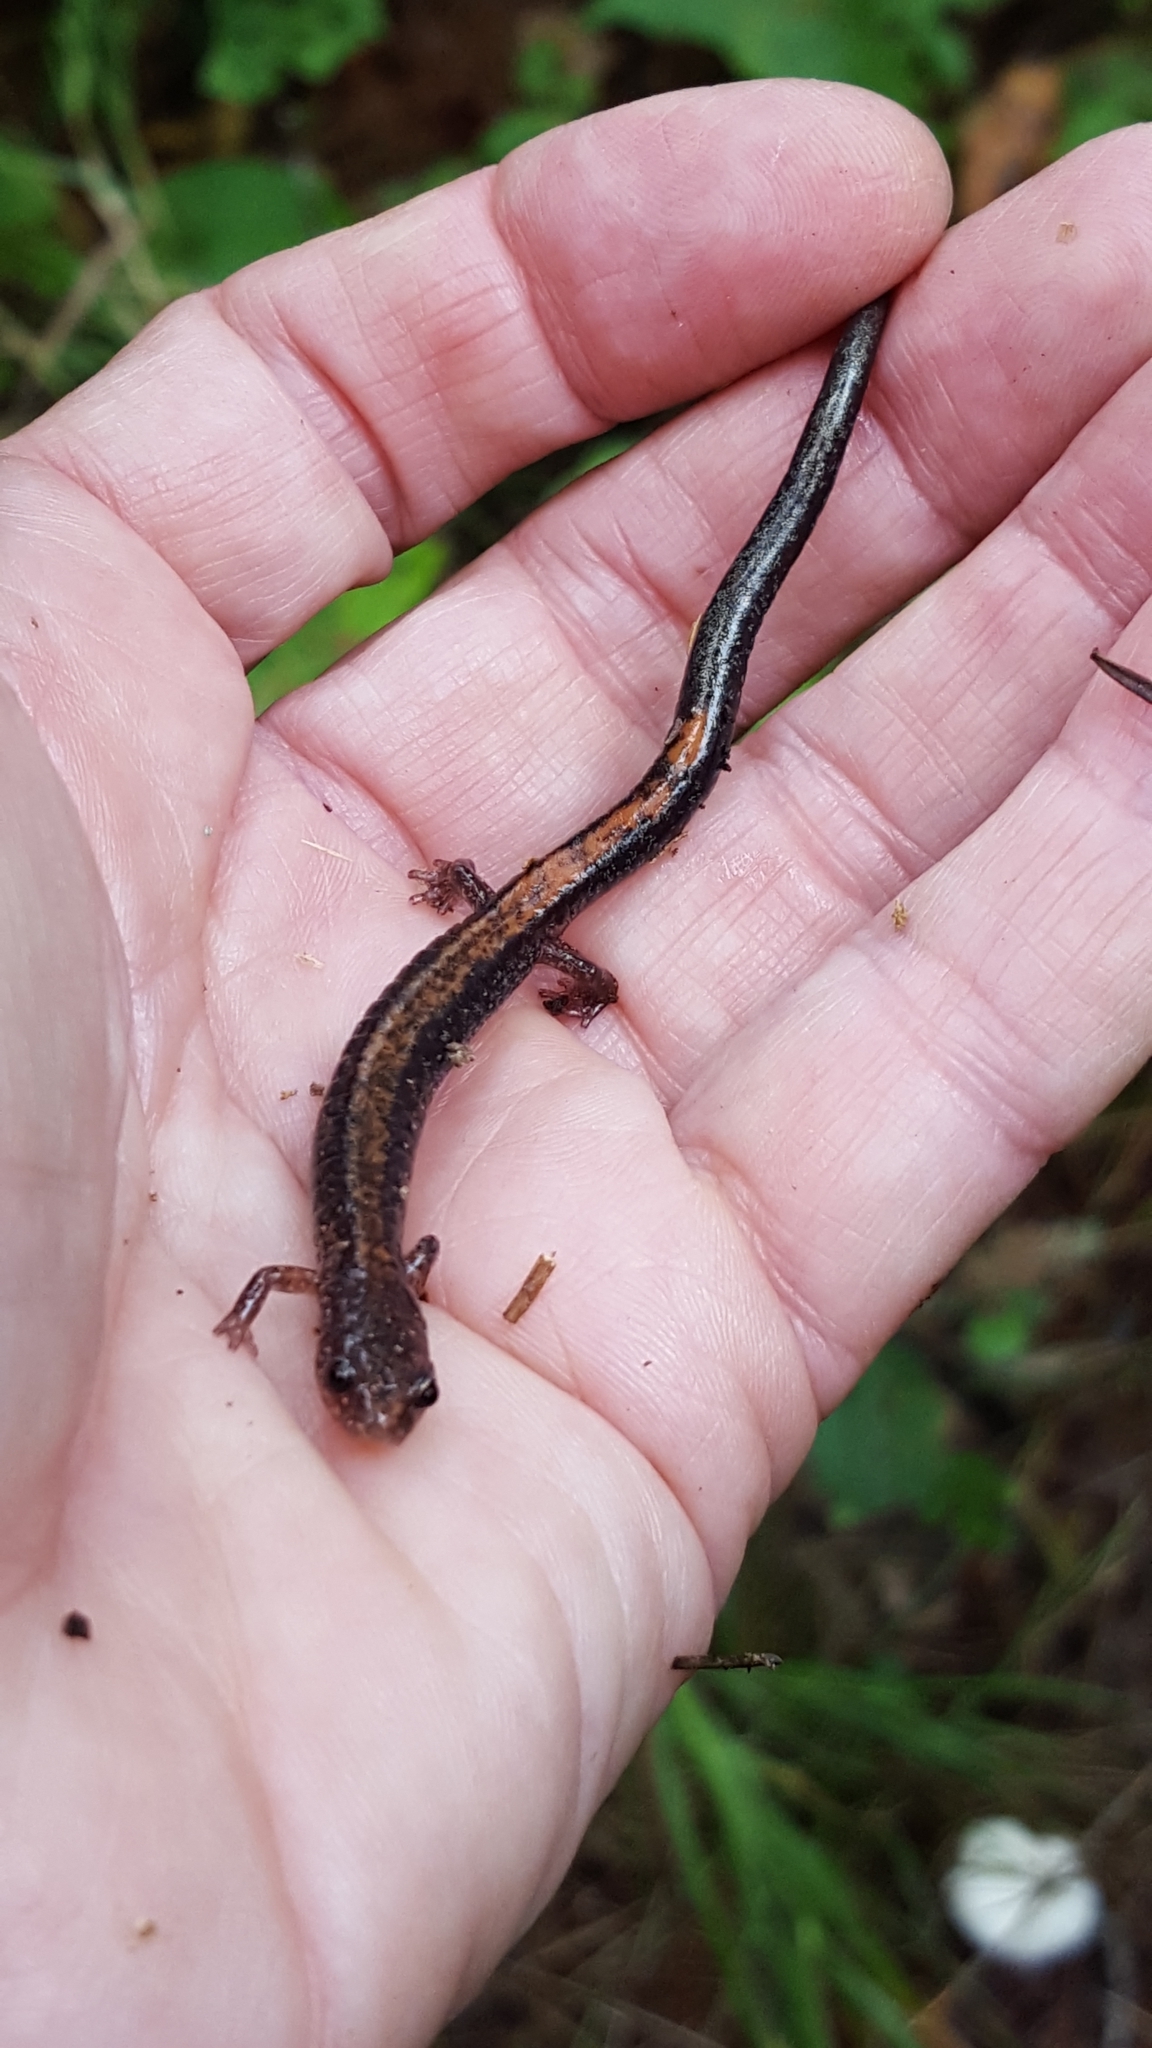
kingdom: Animalia
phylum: Chordata
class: Amphibia
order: Caudata
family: Plethodontidae
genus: Plethodon
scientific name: Plethodon cinereus
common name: Redback salamander
